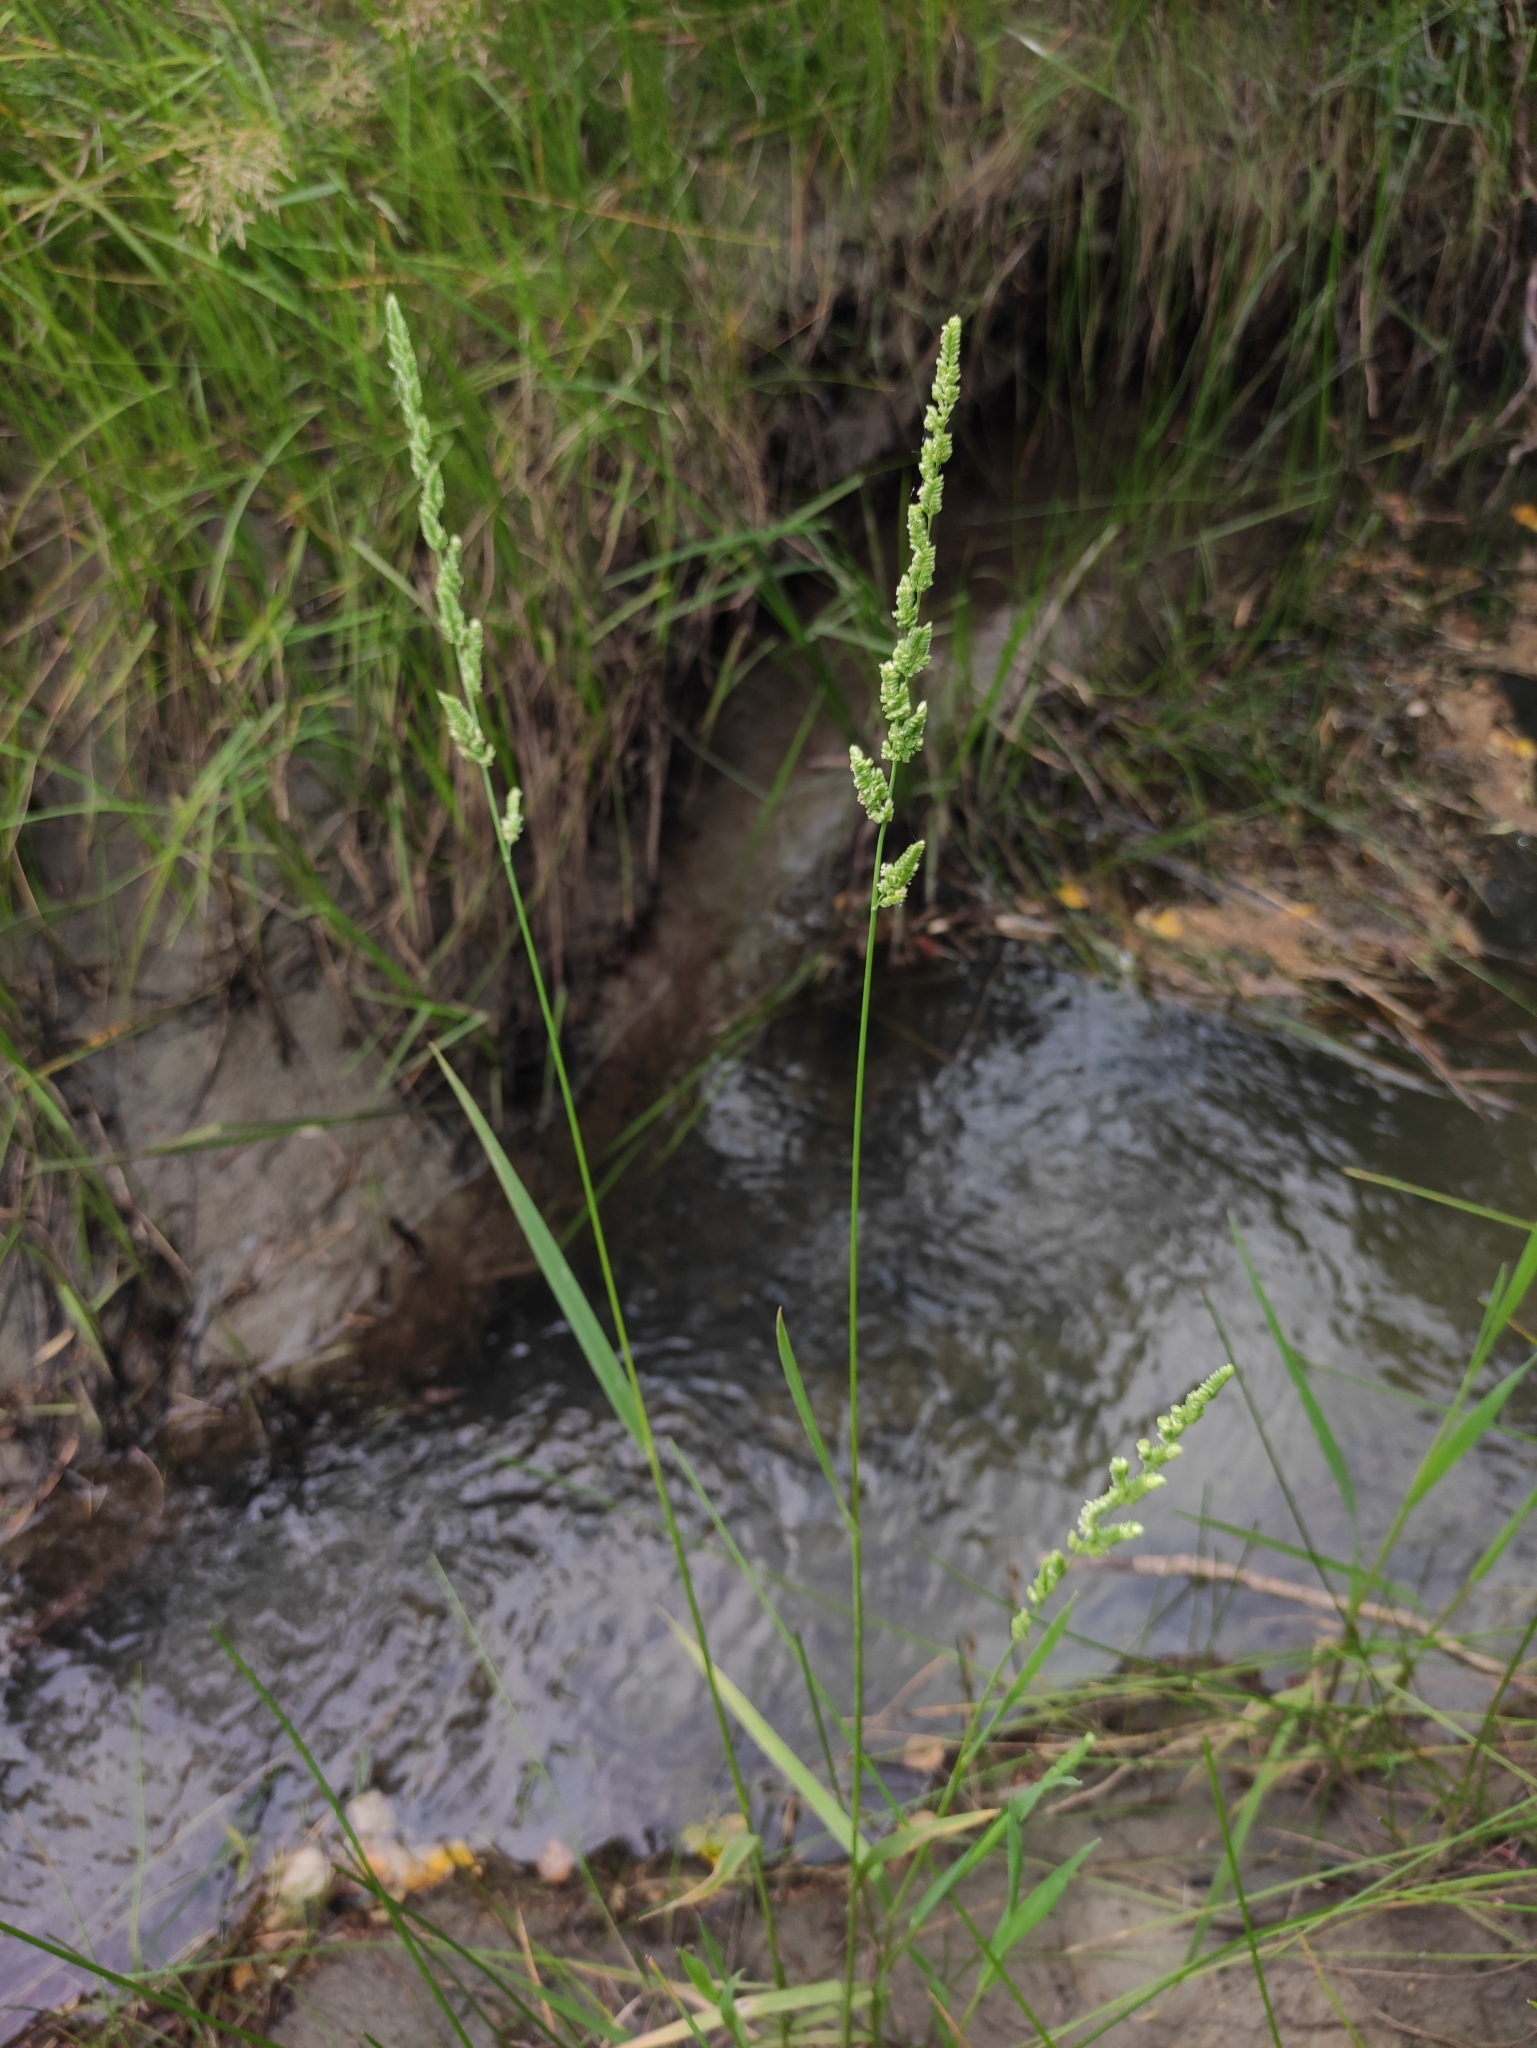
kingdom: Plantae
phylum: Tracheophyta
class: Liliopsida
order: Poales
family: Poaceae
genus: Beckmannia
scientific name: Beckmannia syzigachne
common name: American slough-grass
